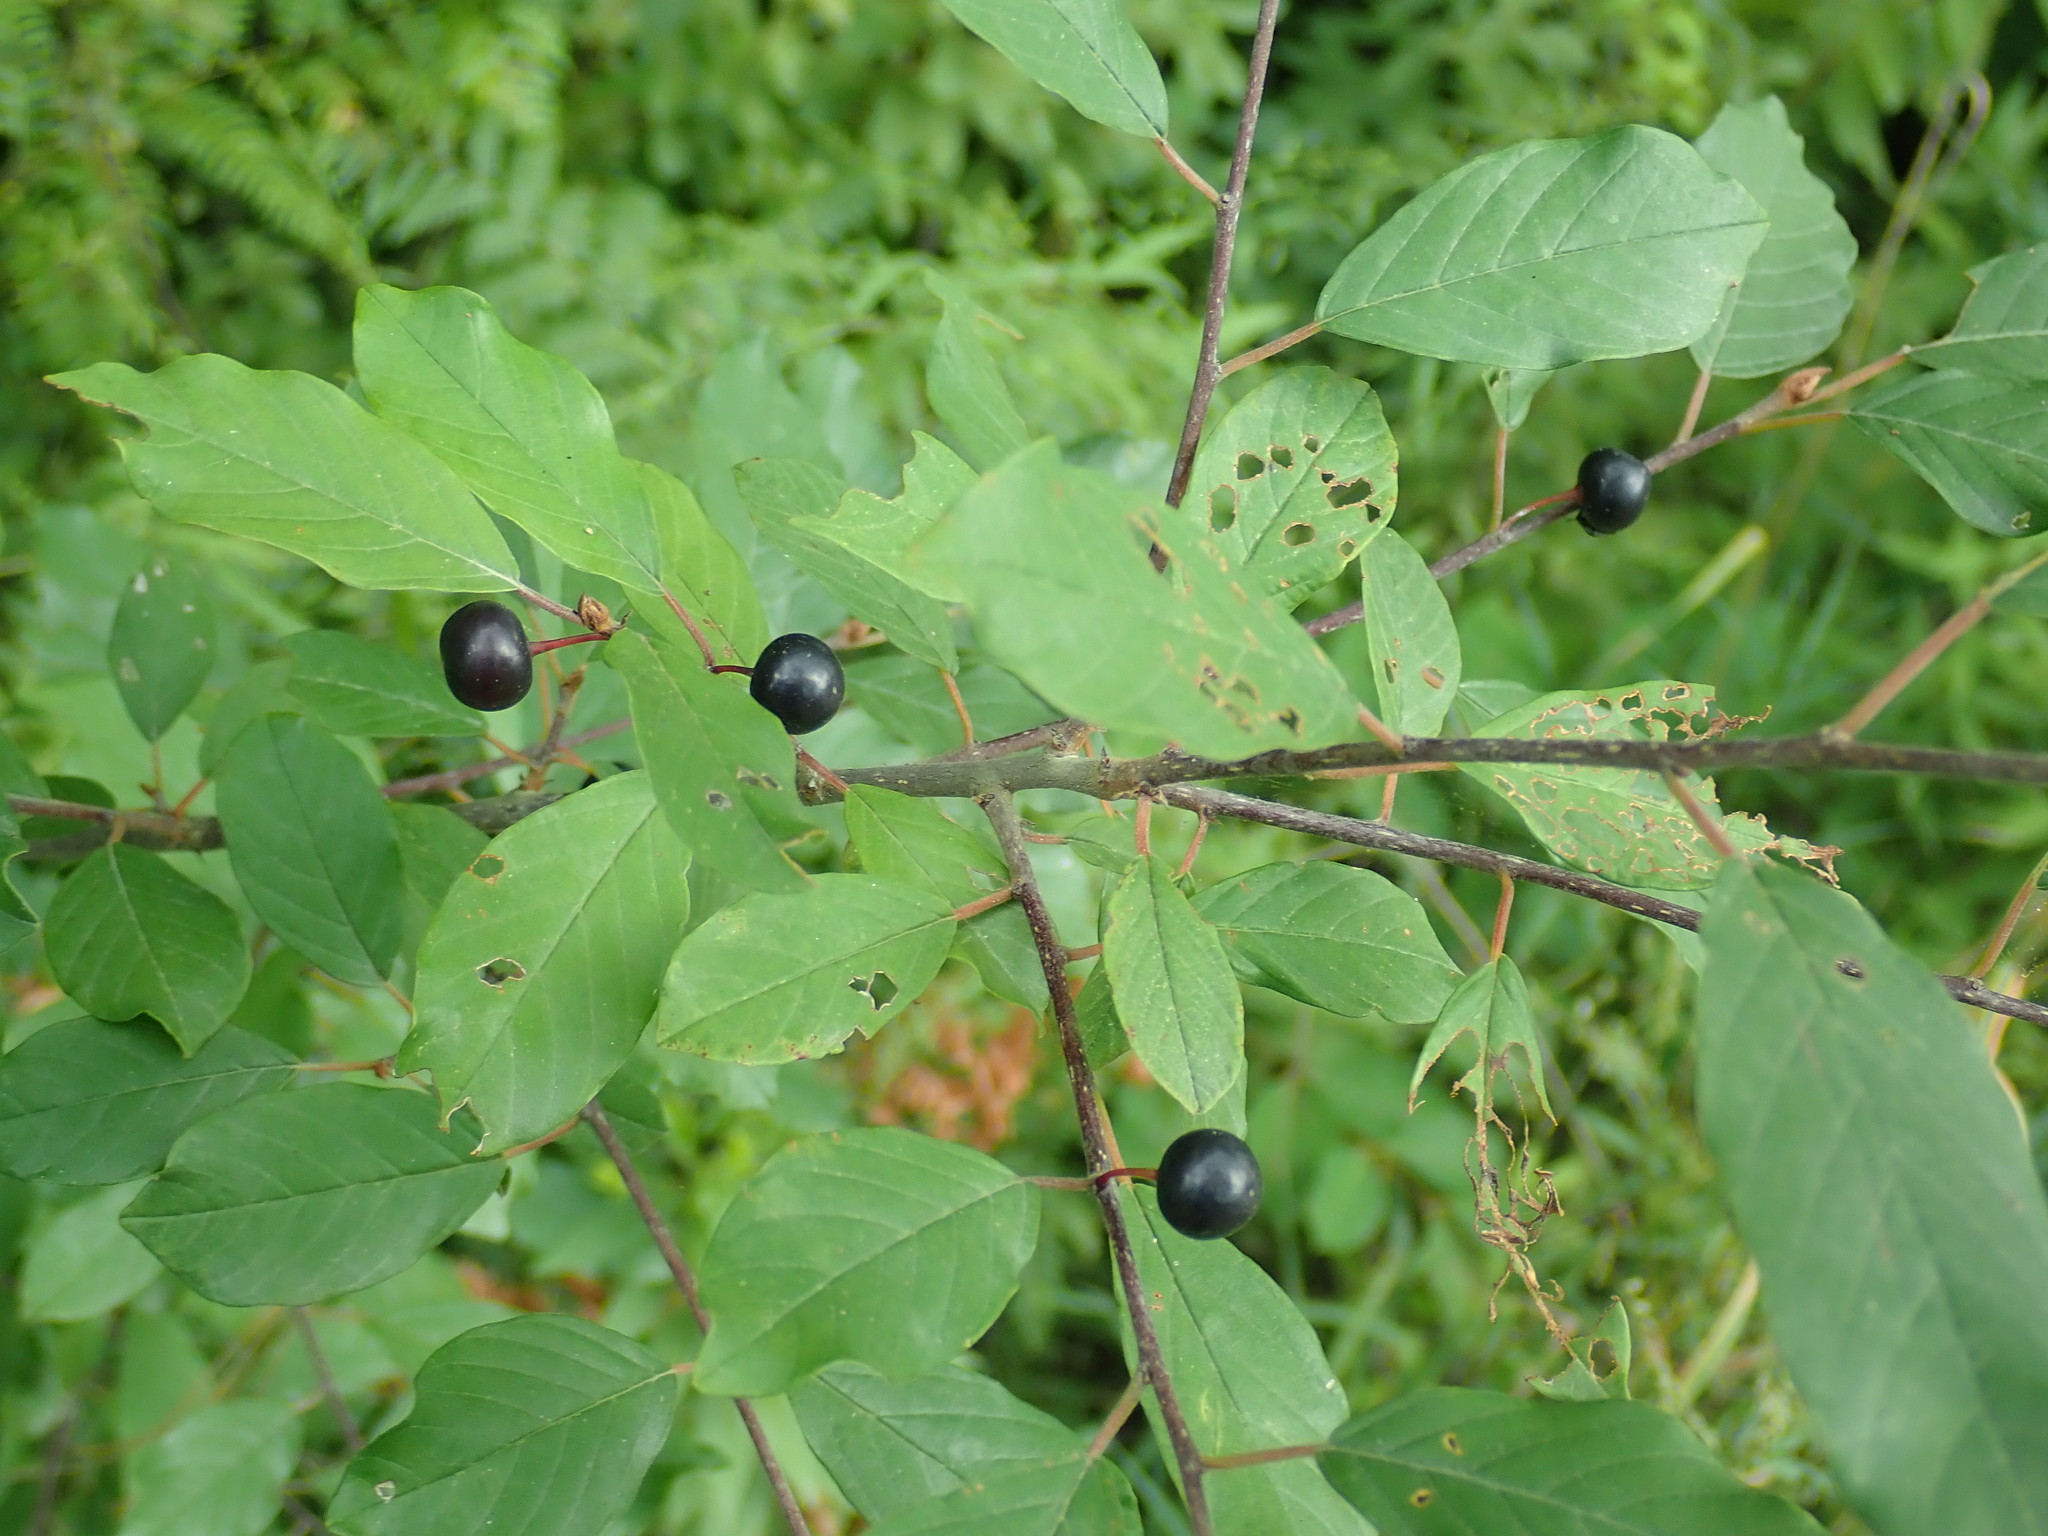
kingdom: Plantae
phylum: Tracheophyta
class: Magnoliopsida
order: Rosales
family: Rhamnaceae
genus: Frangula
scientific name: Frangula alnus
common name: Alder buckthorn
